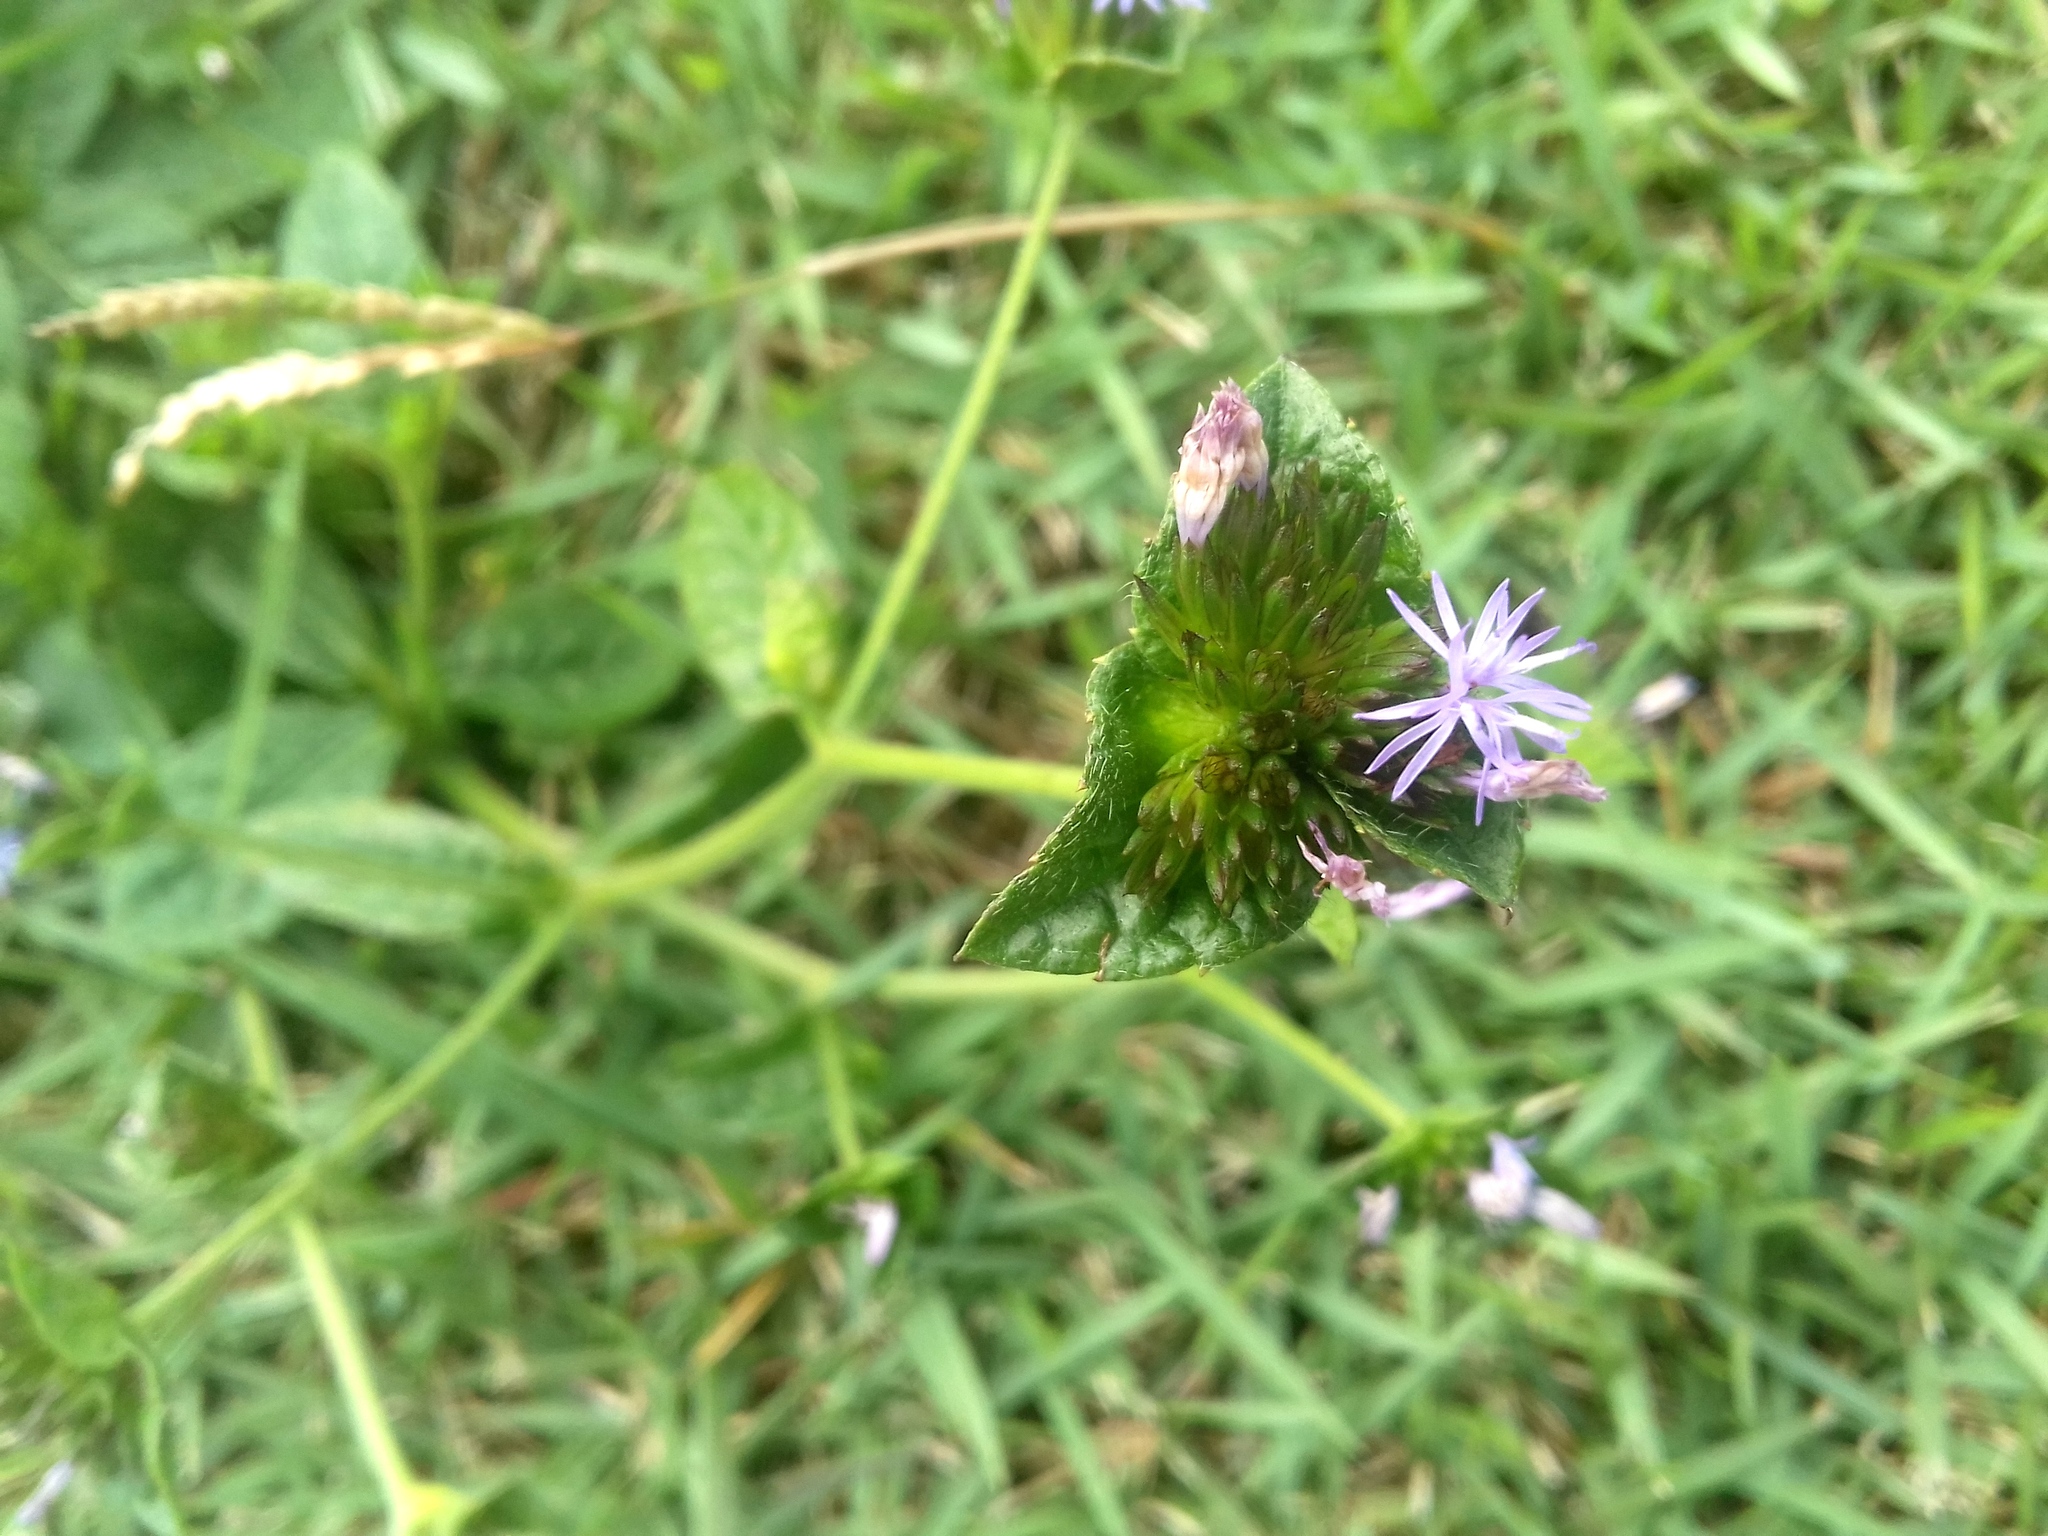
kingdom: Plantae
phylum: Tracheophyta
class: Magnoliopsida
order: Asterales
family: Asteraceae
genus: Elephantopus
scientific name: Elephantopus mollis
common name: Soft elephantsfoot
